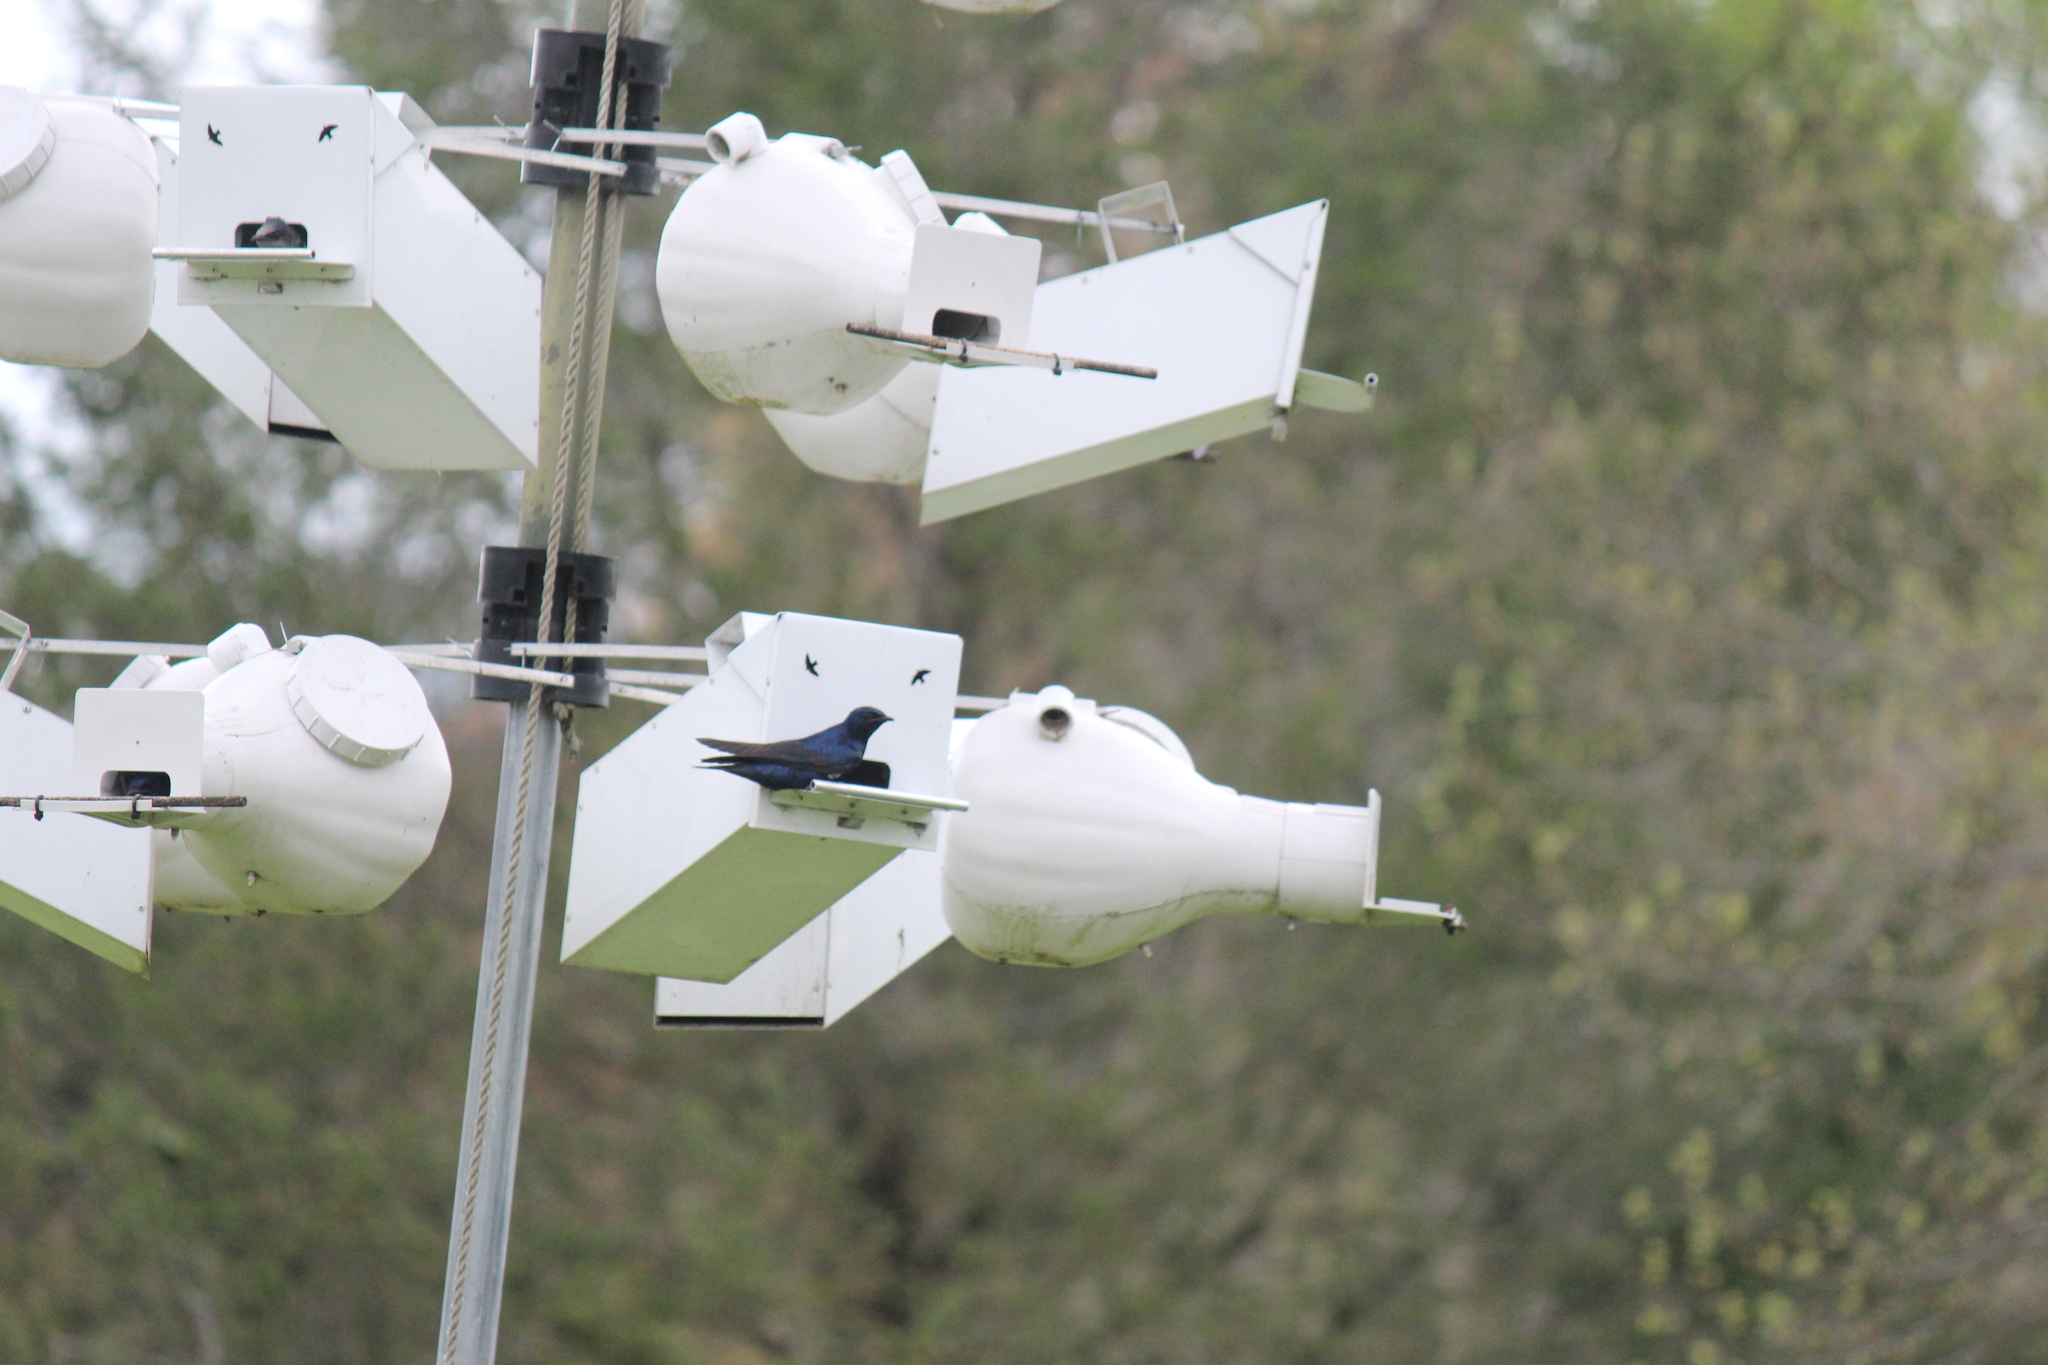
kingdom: Animalia
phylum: Chordata
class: Aves
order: Passeriformes
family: Hirundinidae
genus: Progne
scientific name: Progne subis
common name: Purple martin
